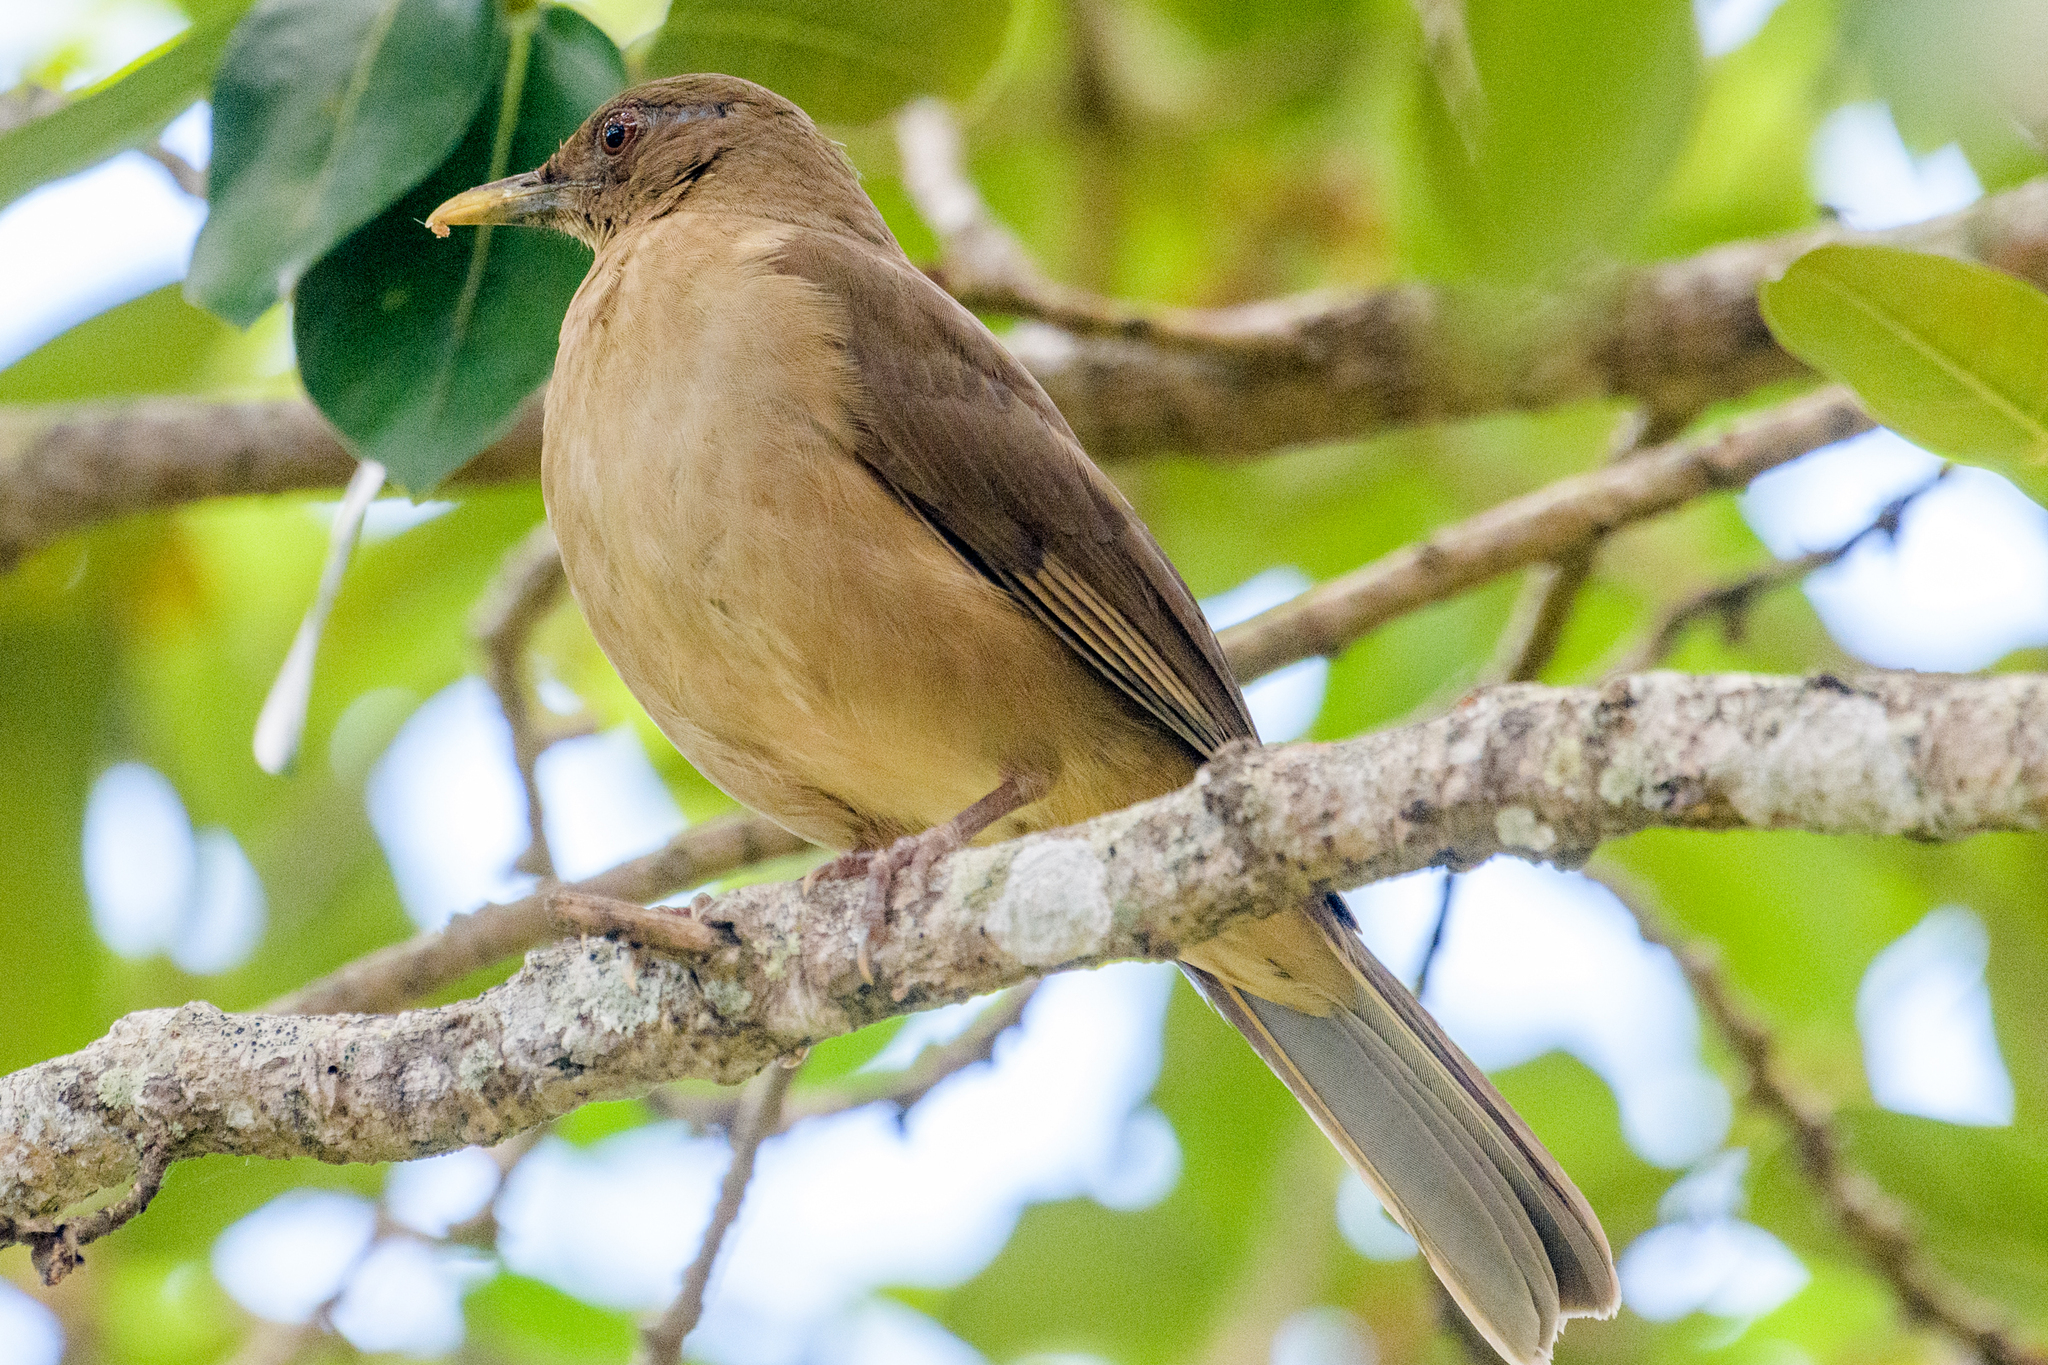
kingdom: Animalia
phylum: Chordata
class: Aves
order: Passeriformes
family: Turdidae
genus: Turdus
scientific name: Turdus grayi
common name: Clay-colored thrush
